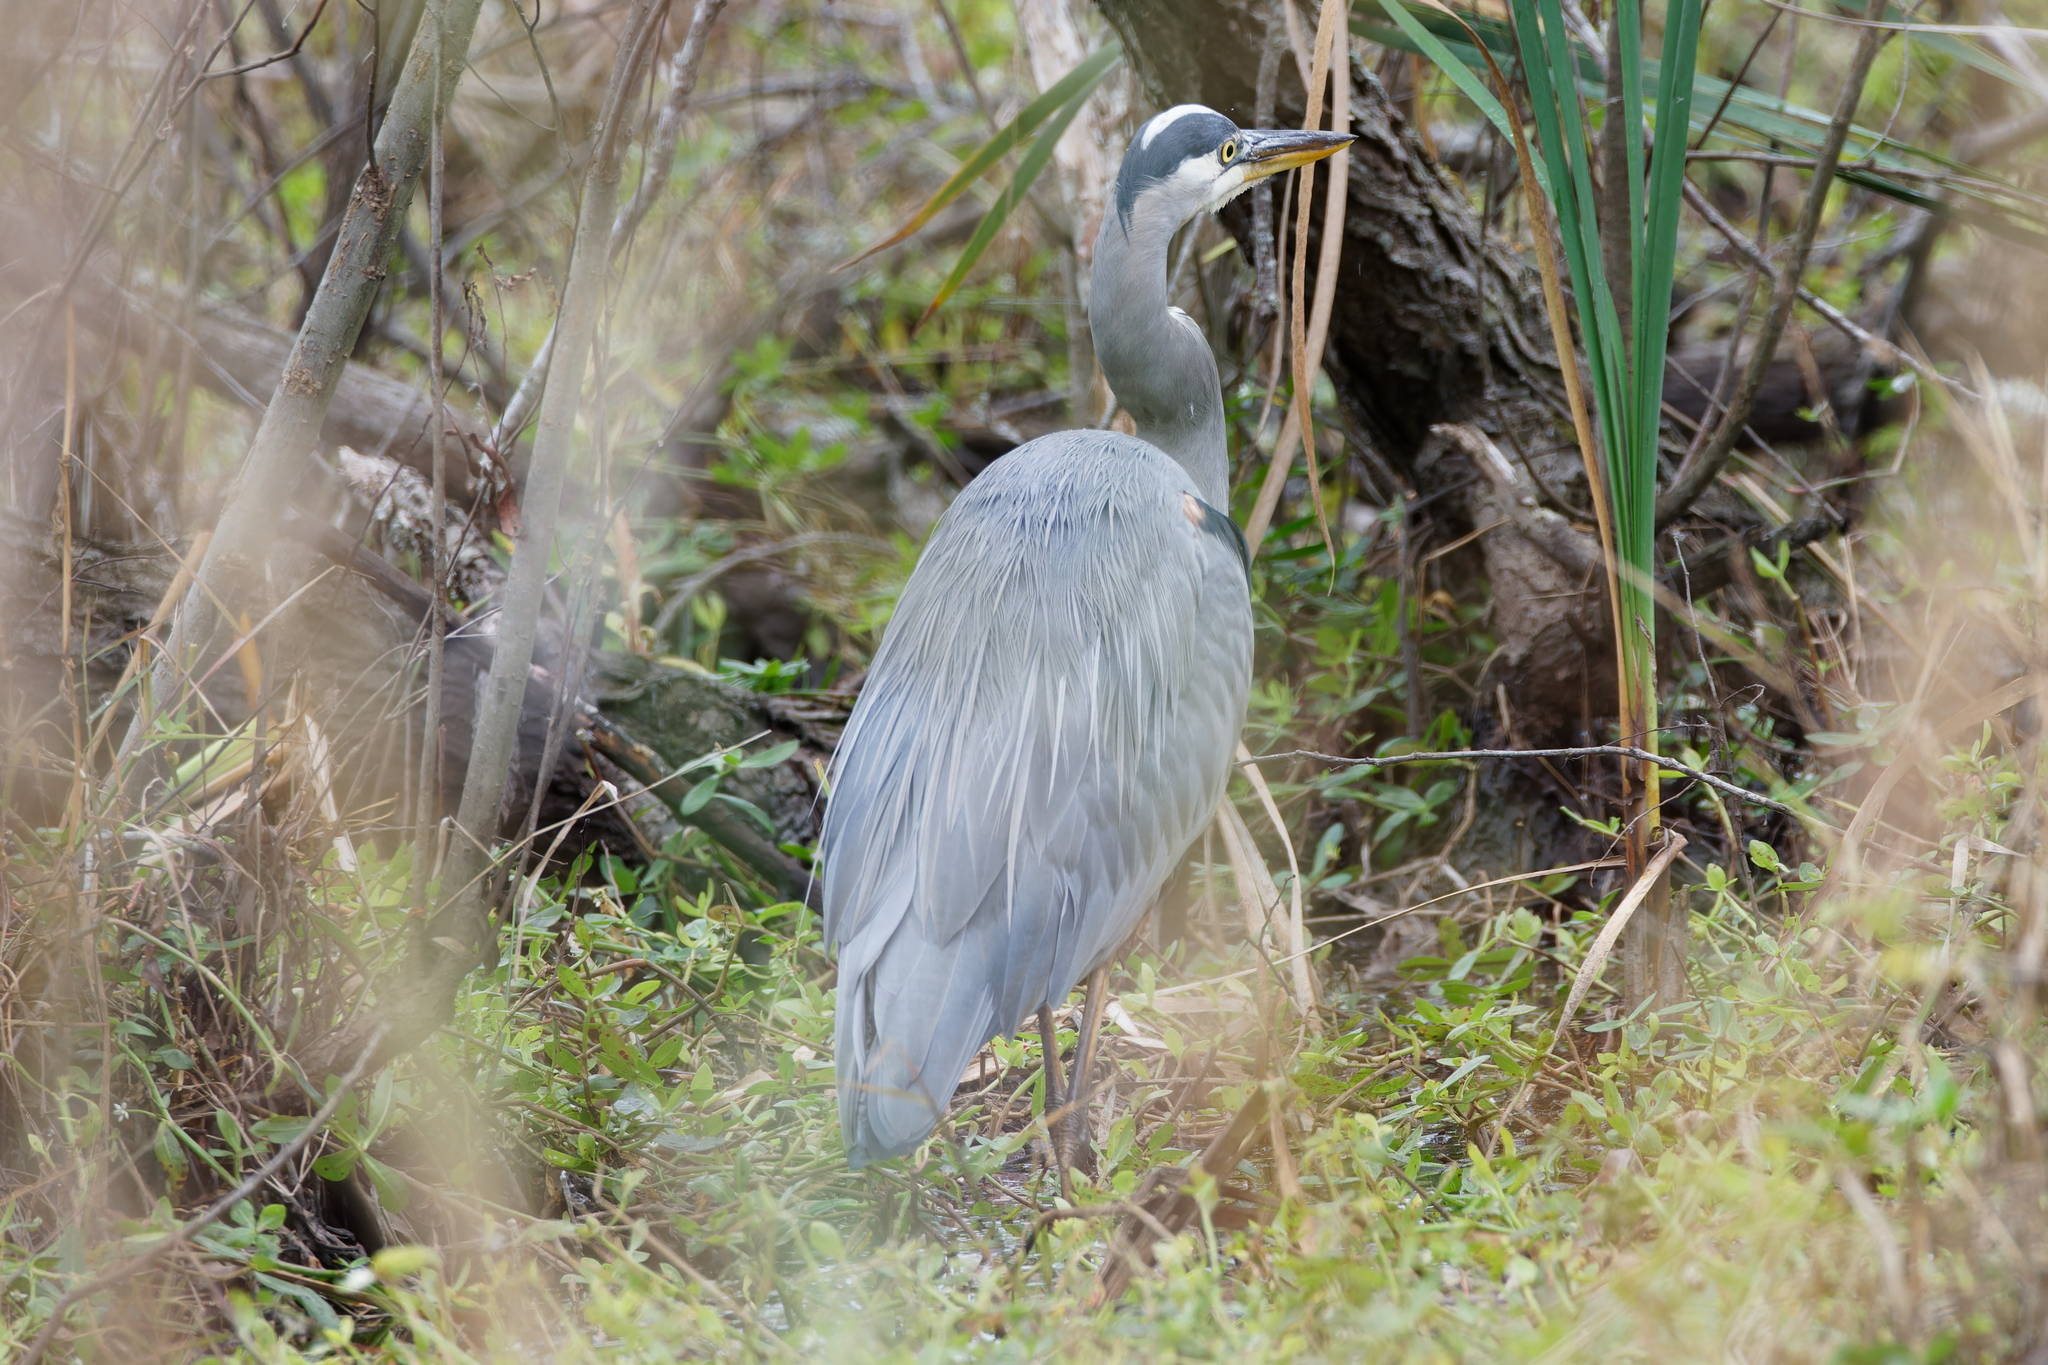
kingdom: Animalia
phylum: Chordata
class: Aves
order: Pelecaniformes
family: Ardeidae
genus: Ardea
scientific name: Ardea herodias
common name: Great blue heron
